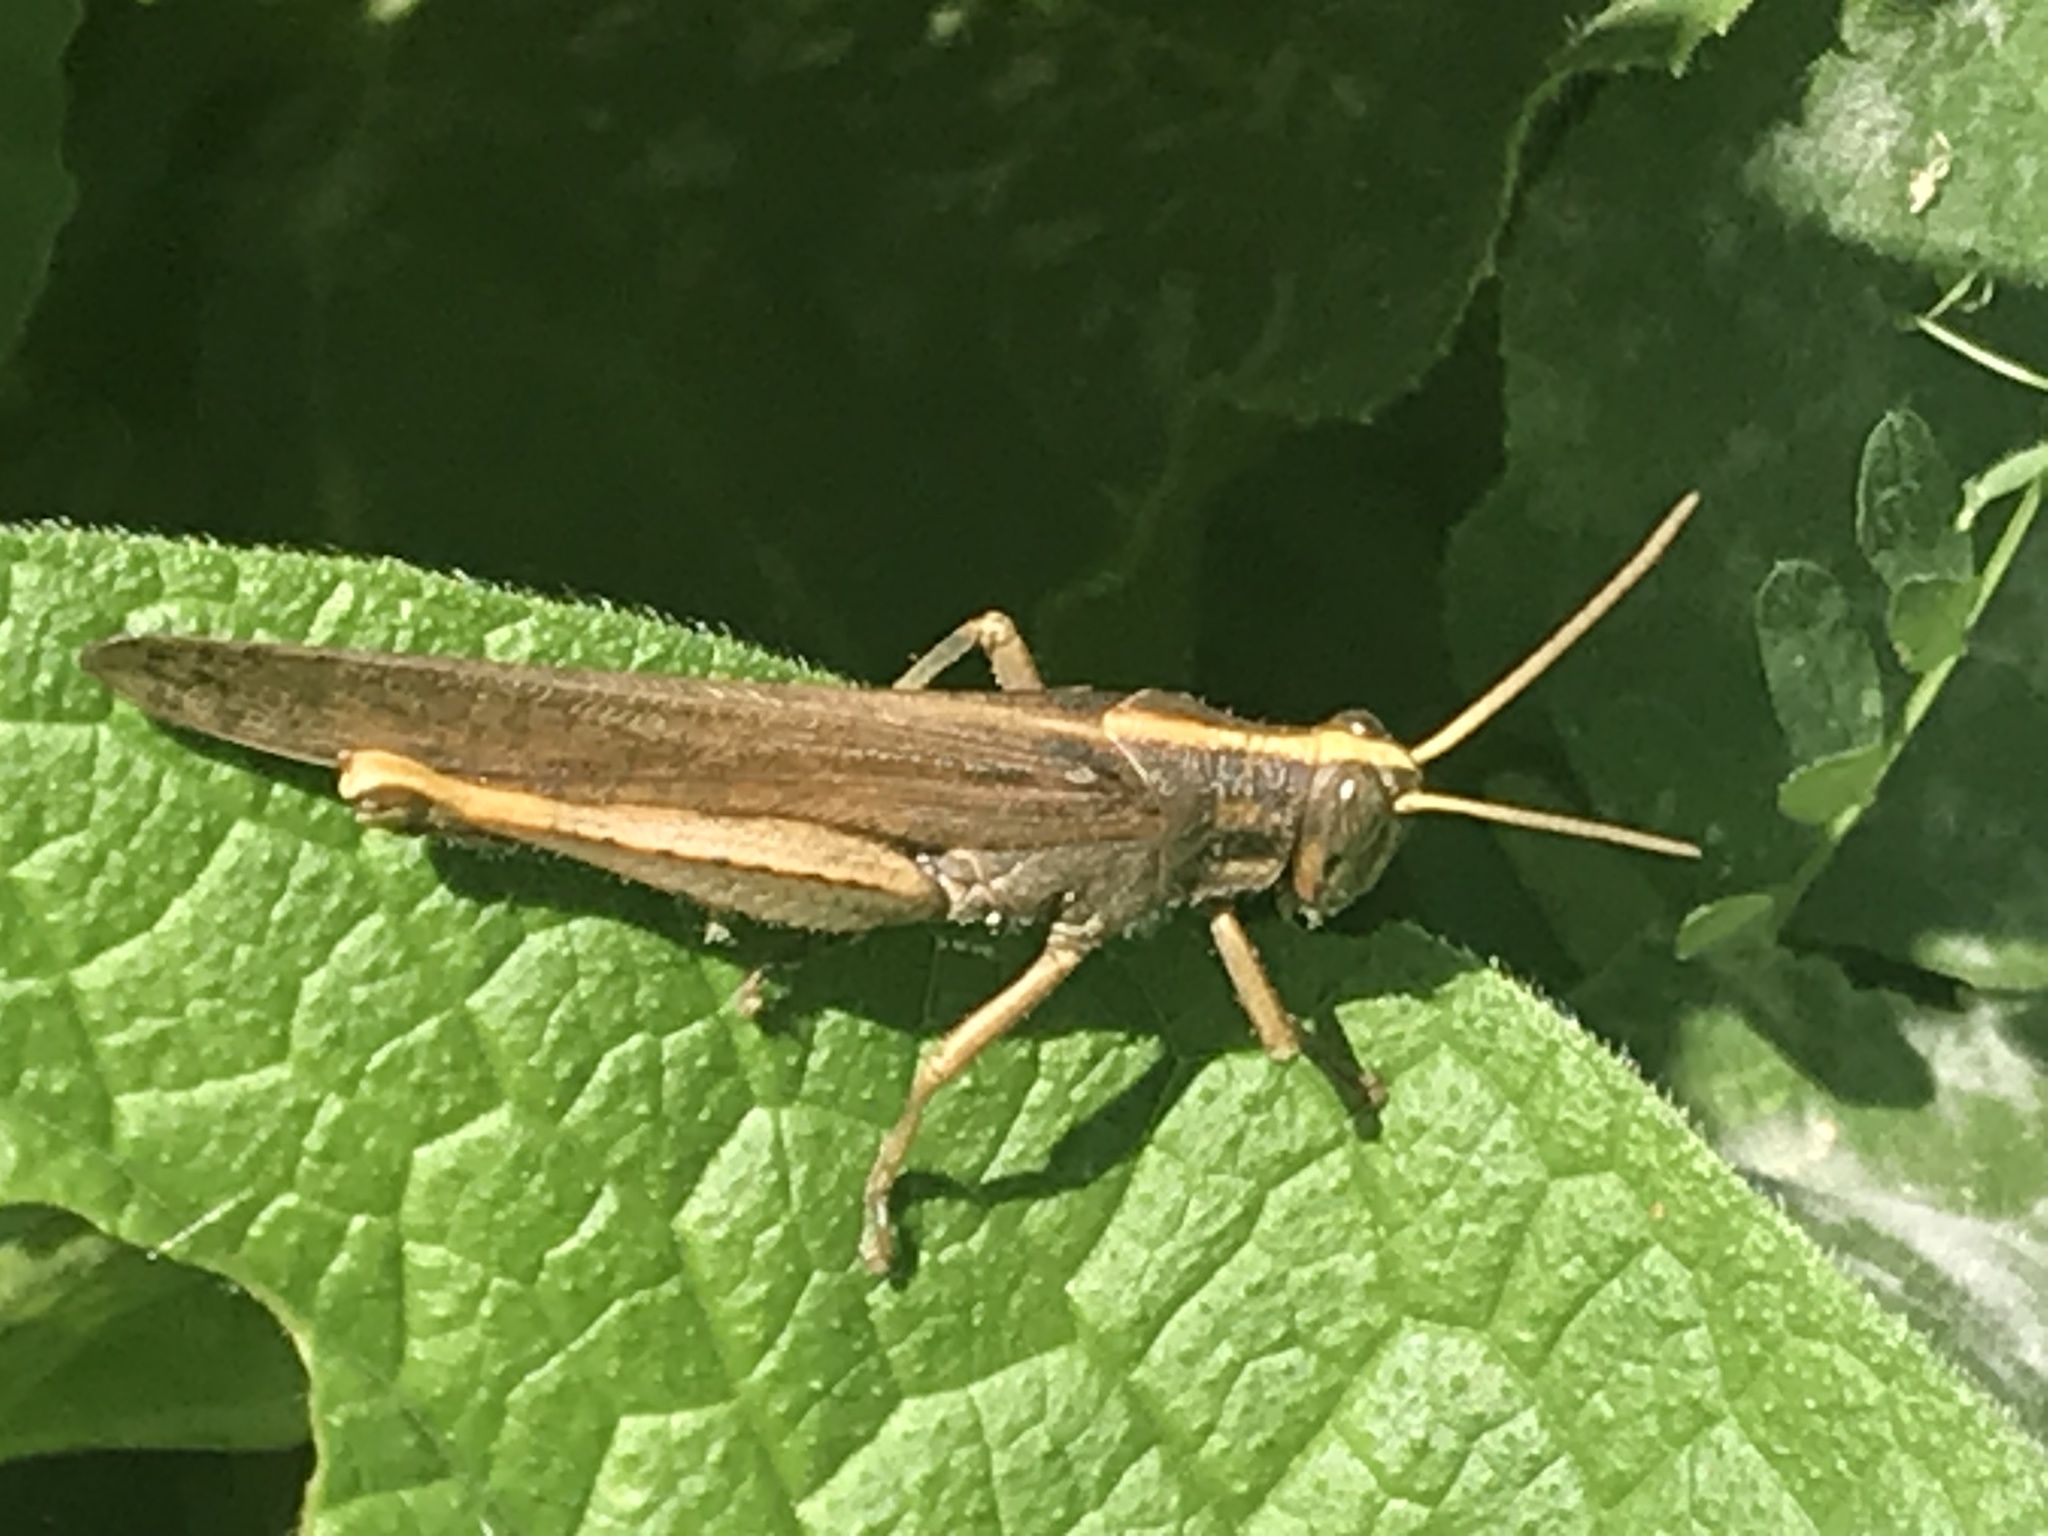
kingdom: Animalia
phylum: Arthropoda
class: Insecta
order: Orthoptera
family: Acrididae
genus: Schistocerca
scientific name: Schistocerca nitens
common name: Vagrant grasshopper
